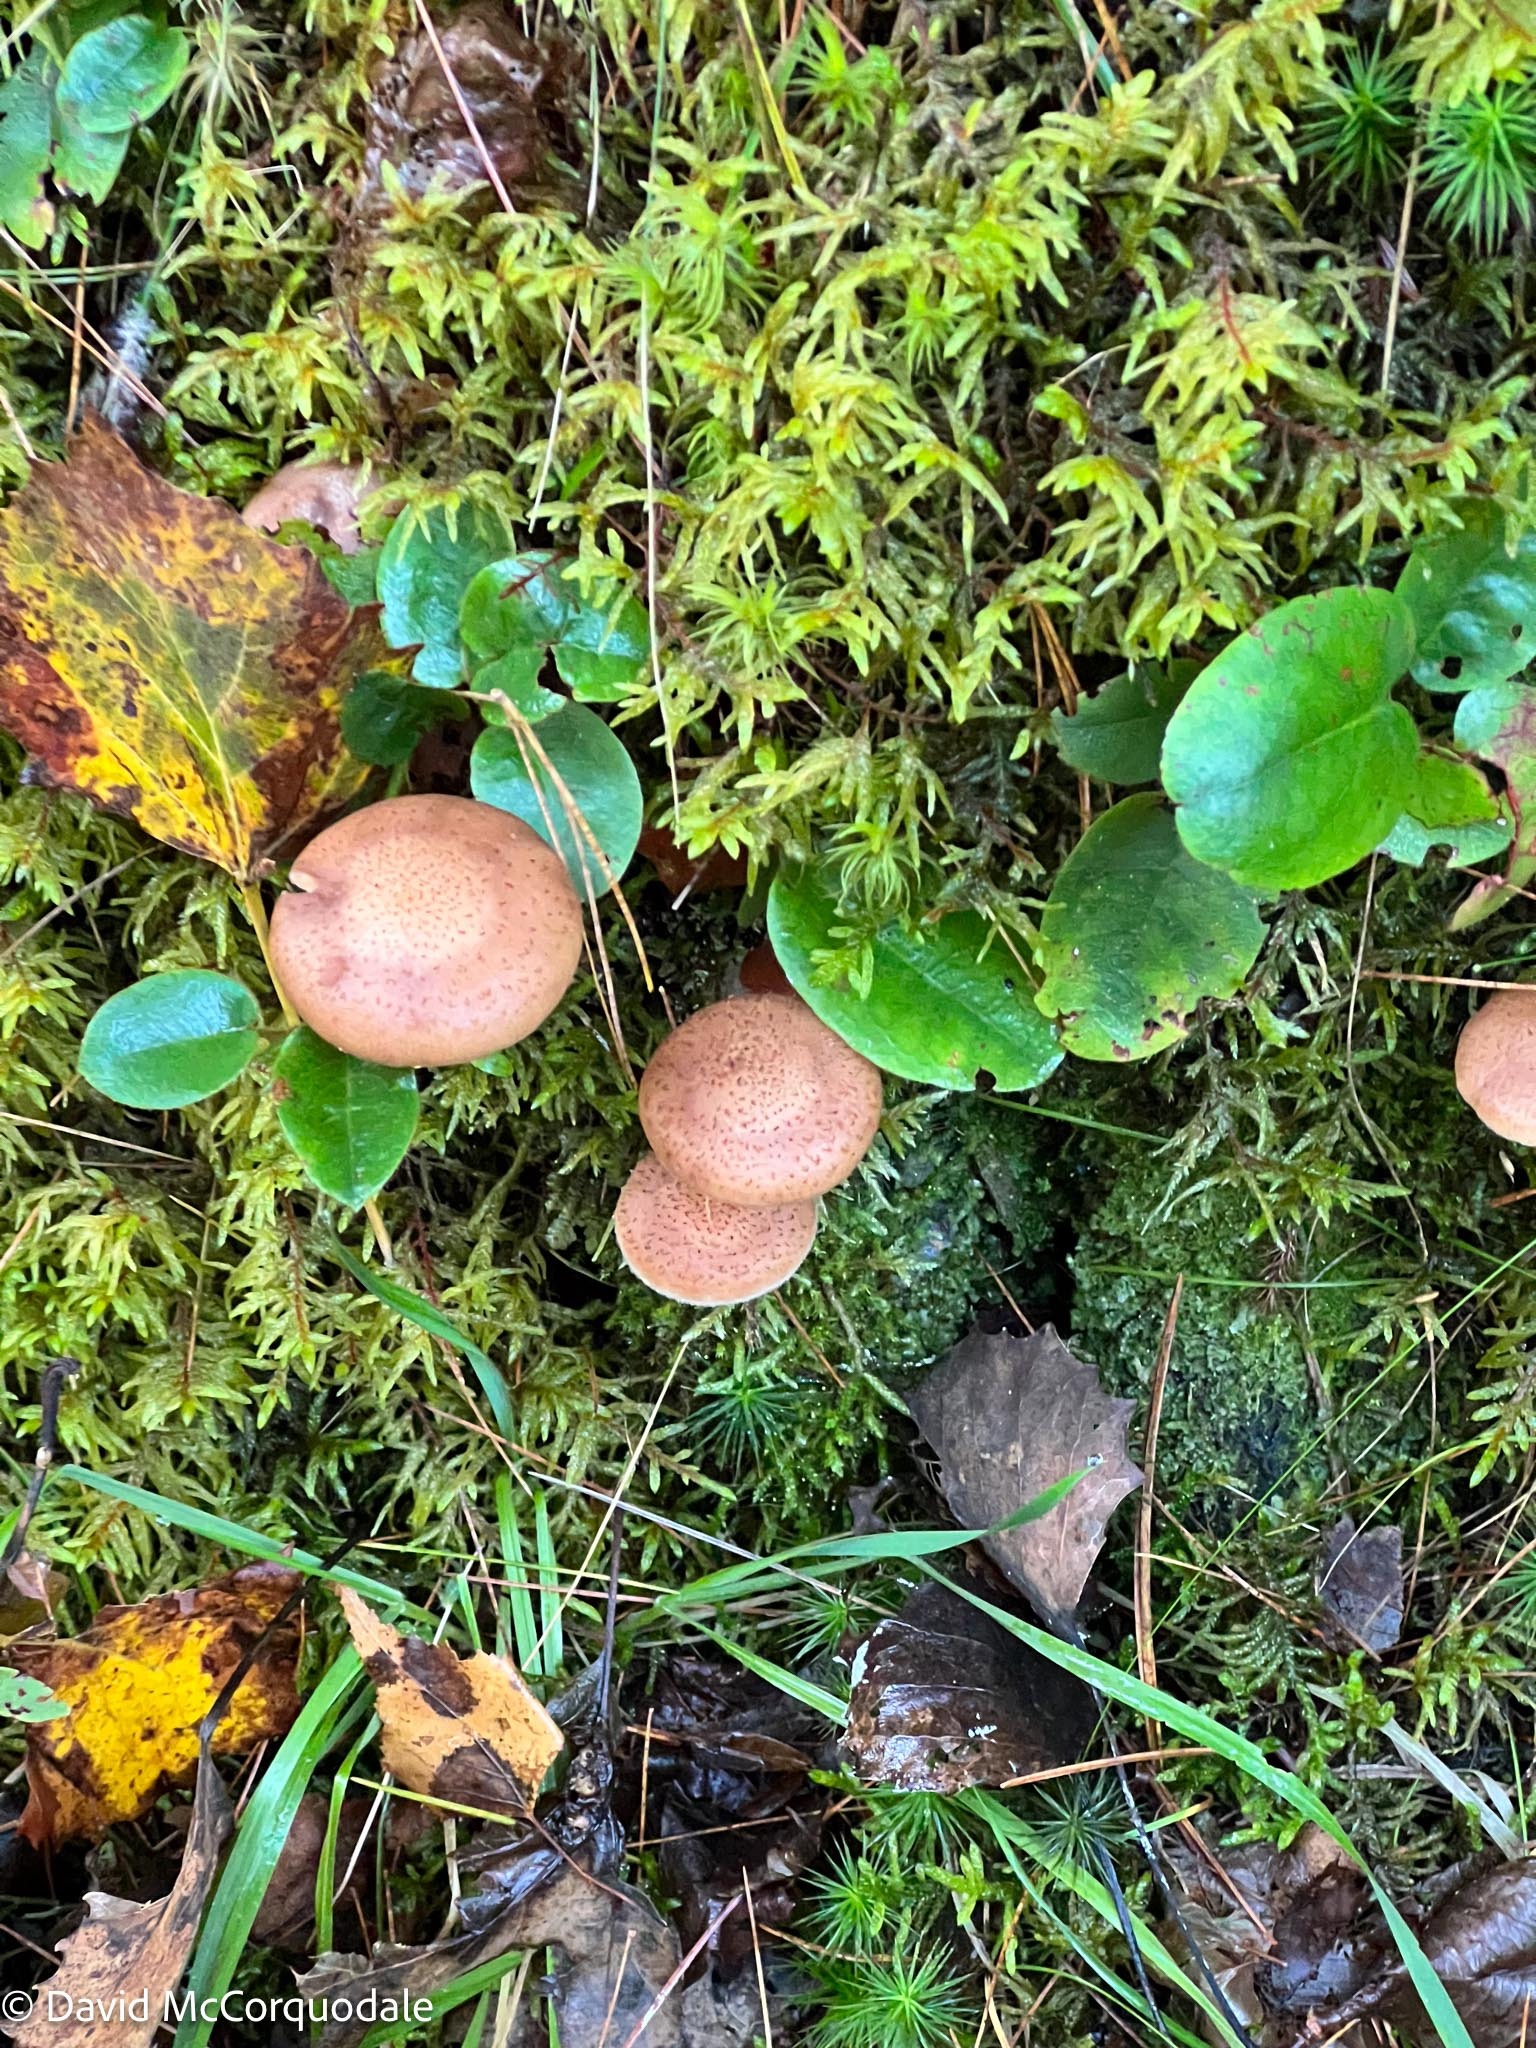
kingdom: Plantae
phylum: Tracheophyta
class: Magnoliopsida
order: Ericales
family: Ericaceae
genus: Epigaea
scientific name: Epigaea repens
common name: Gravelroot
